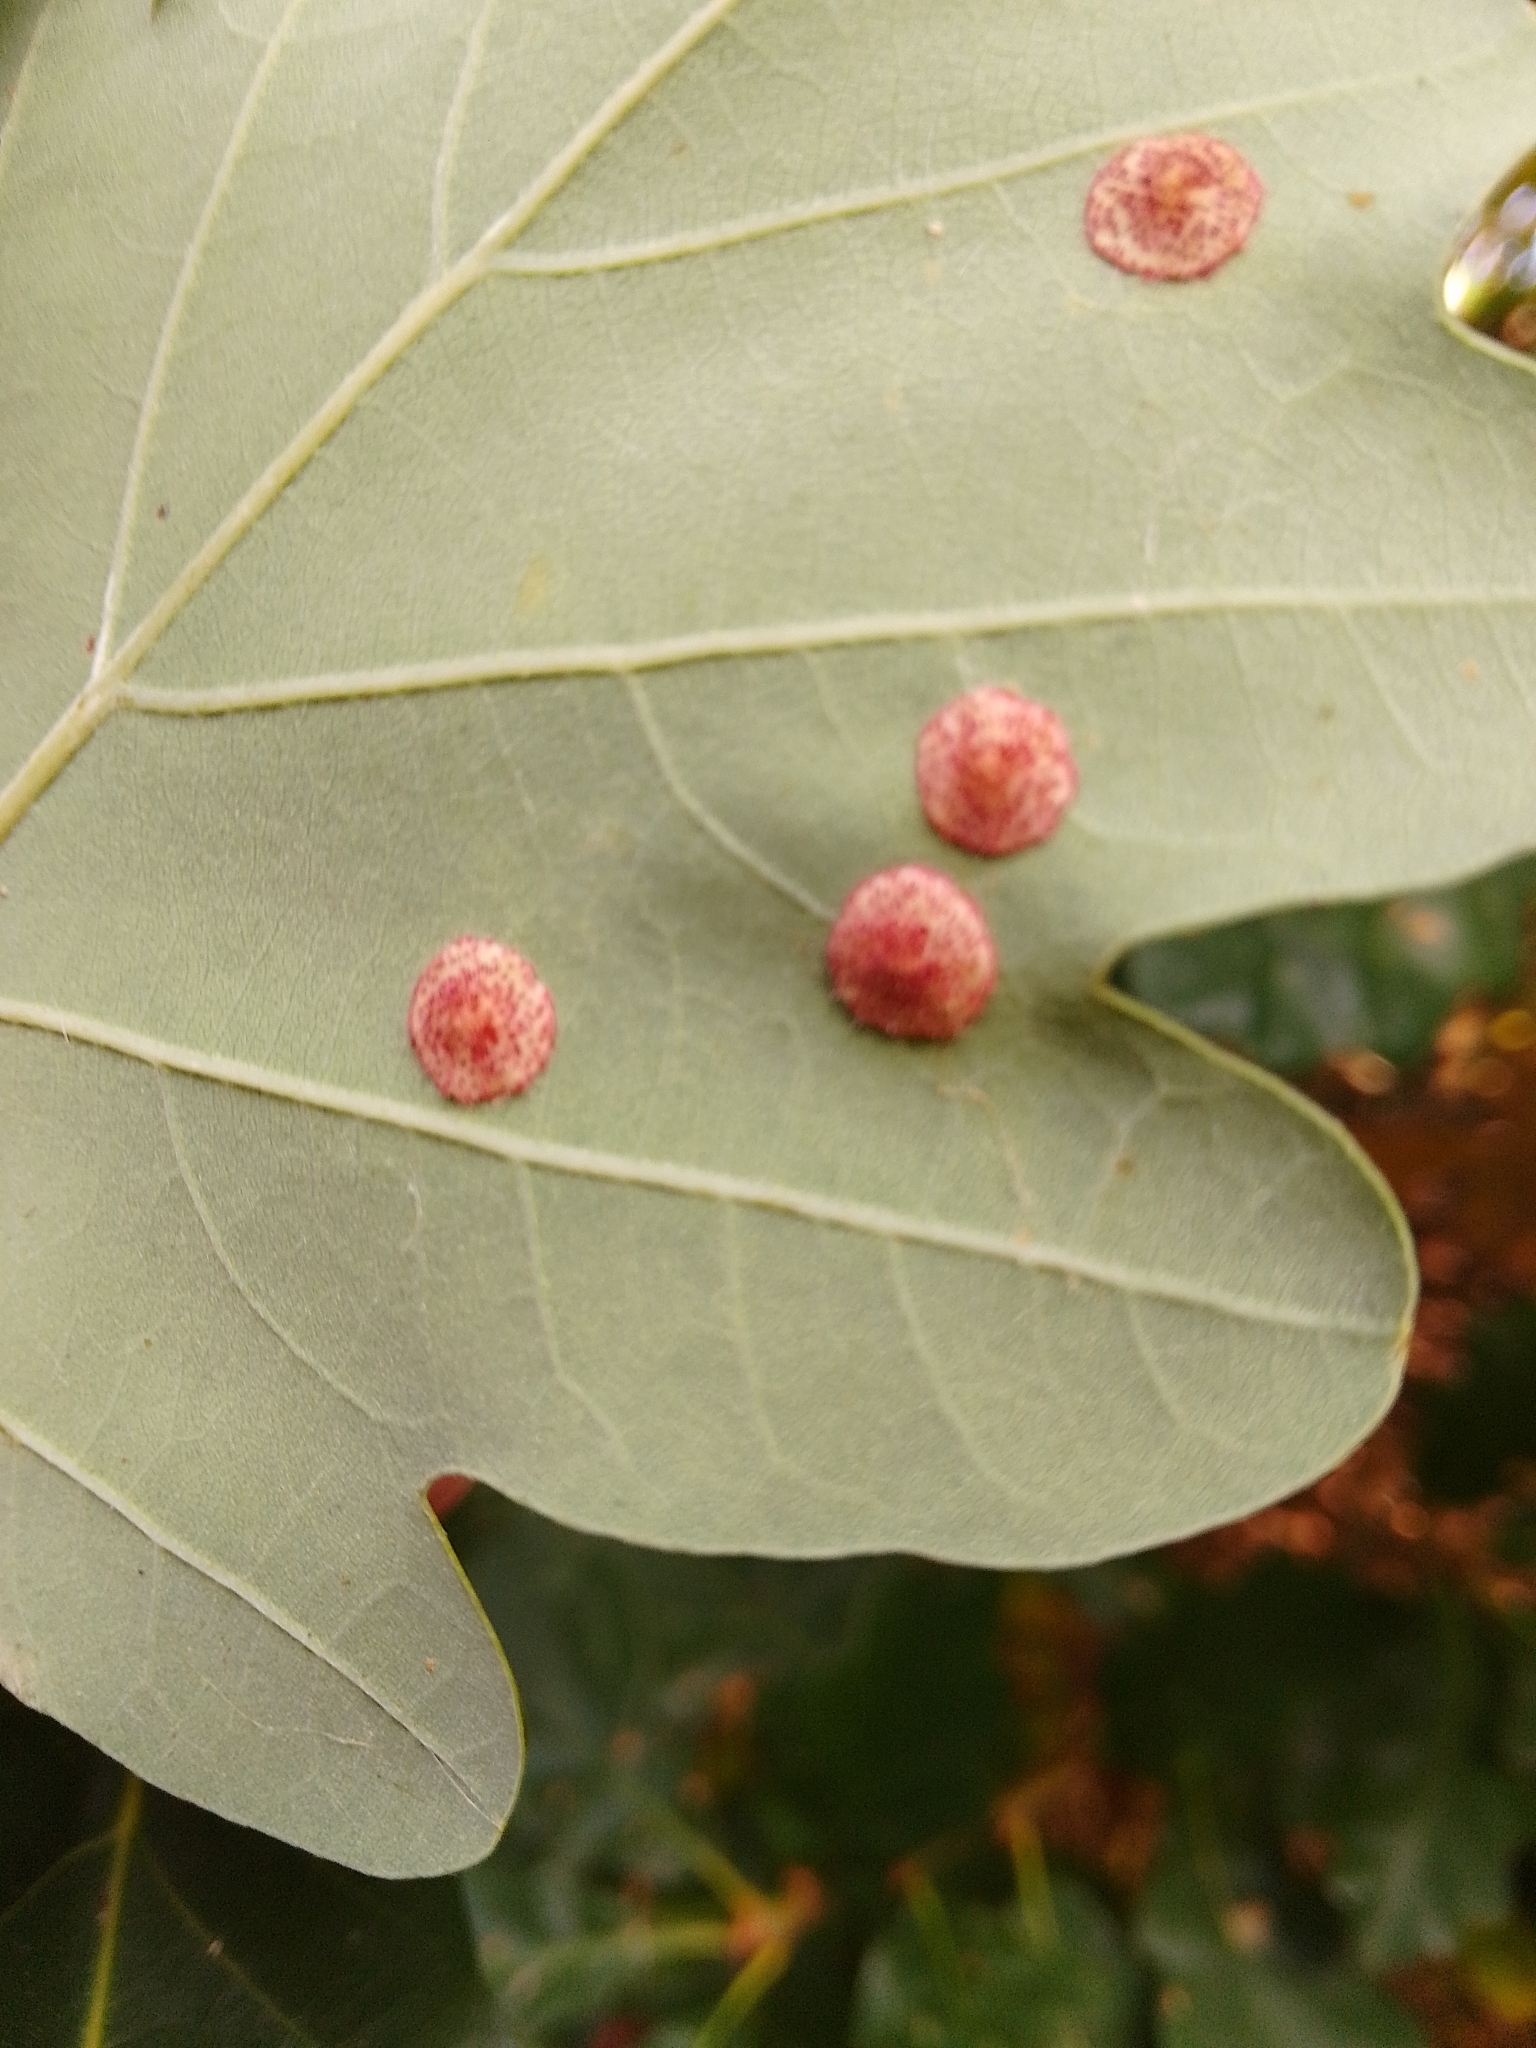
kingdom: Animalia
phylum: Arthropoda
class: Insecta
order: Hymenoptera
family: Cynipidae
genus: Neuroterus
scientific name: Neuroterus quercusbaccarum
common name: Common spangle gall
